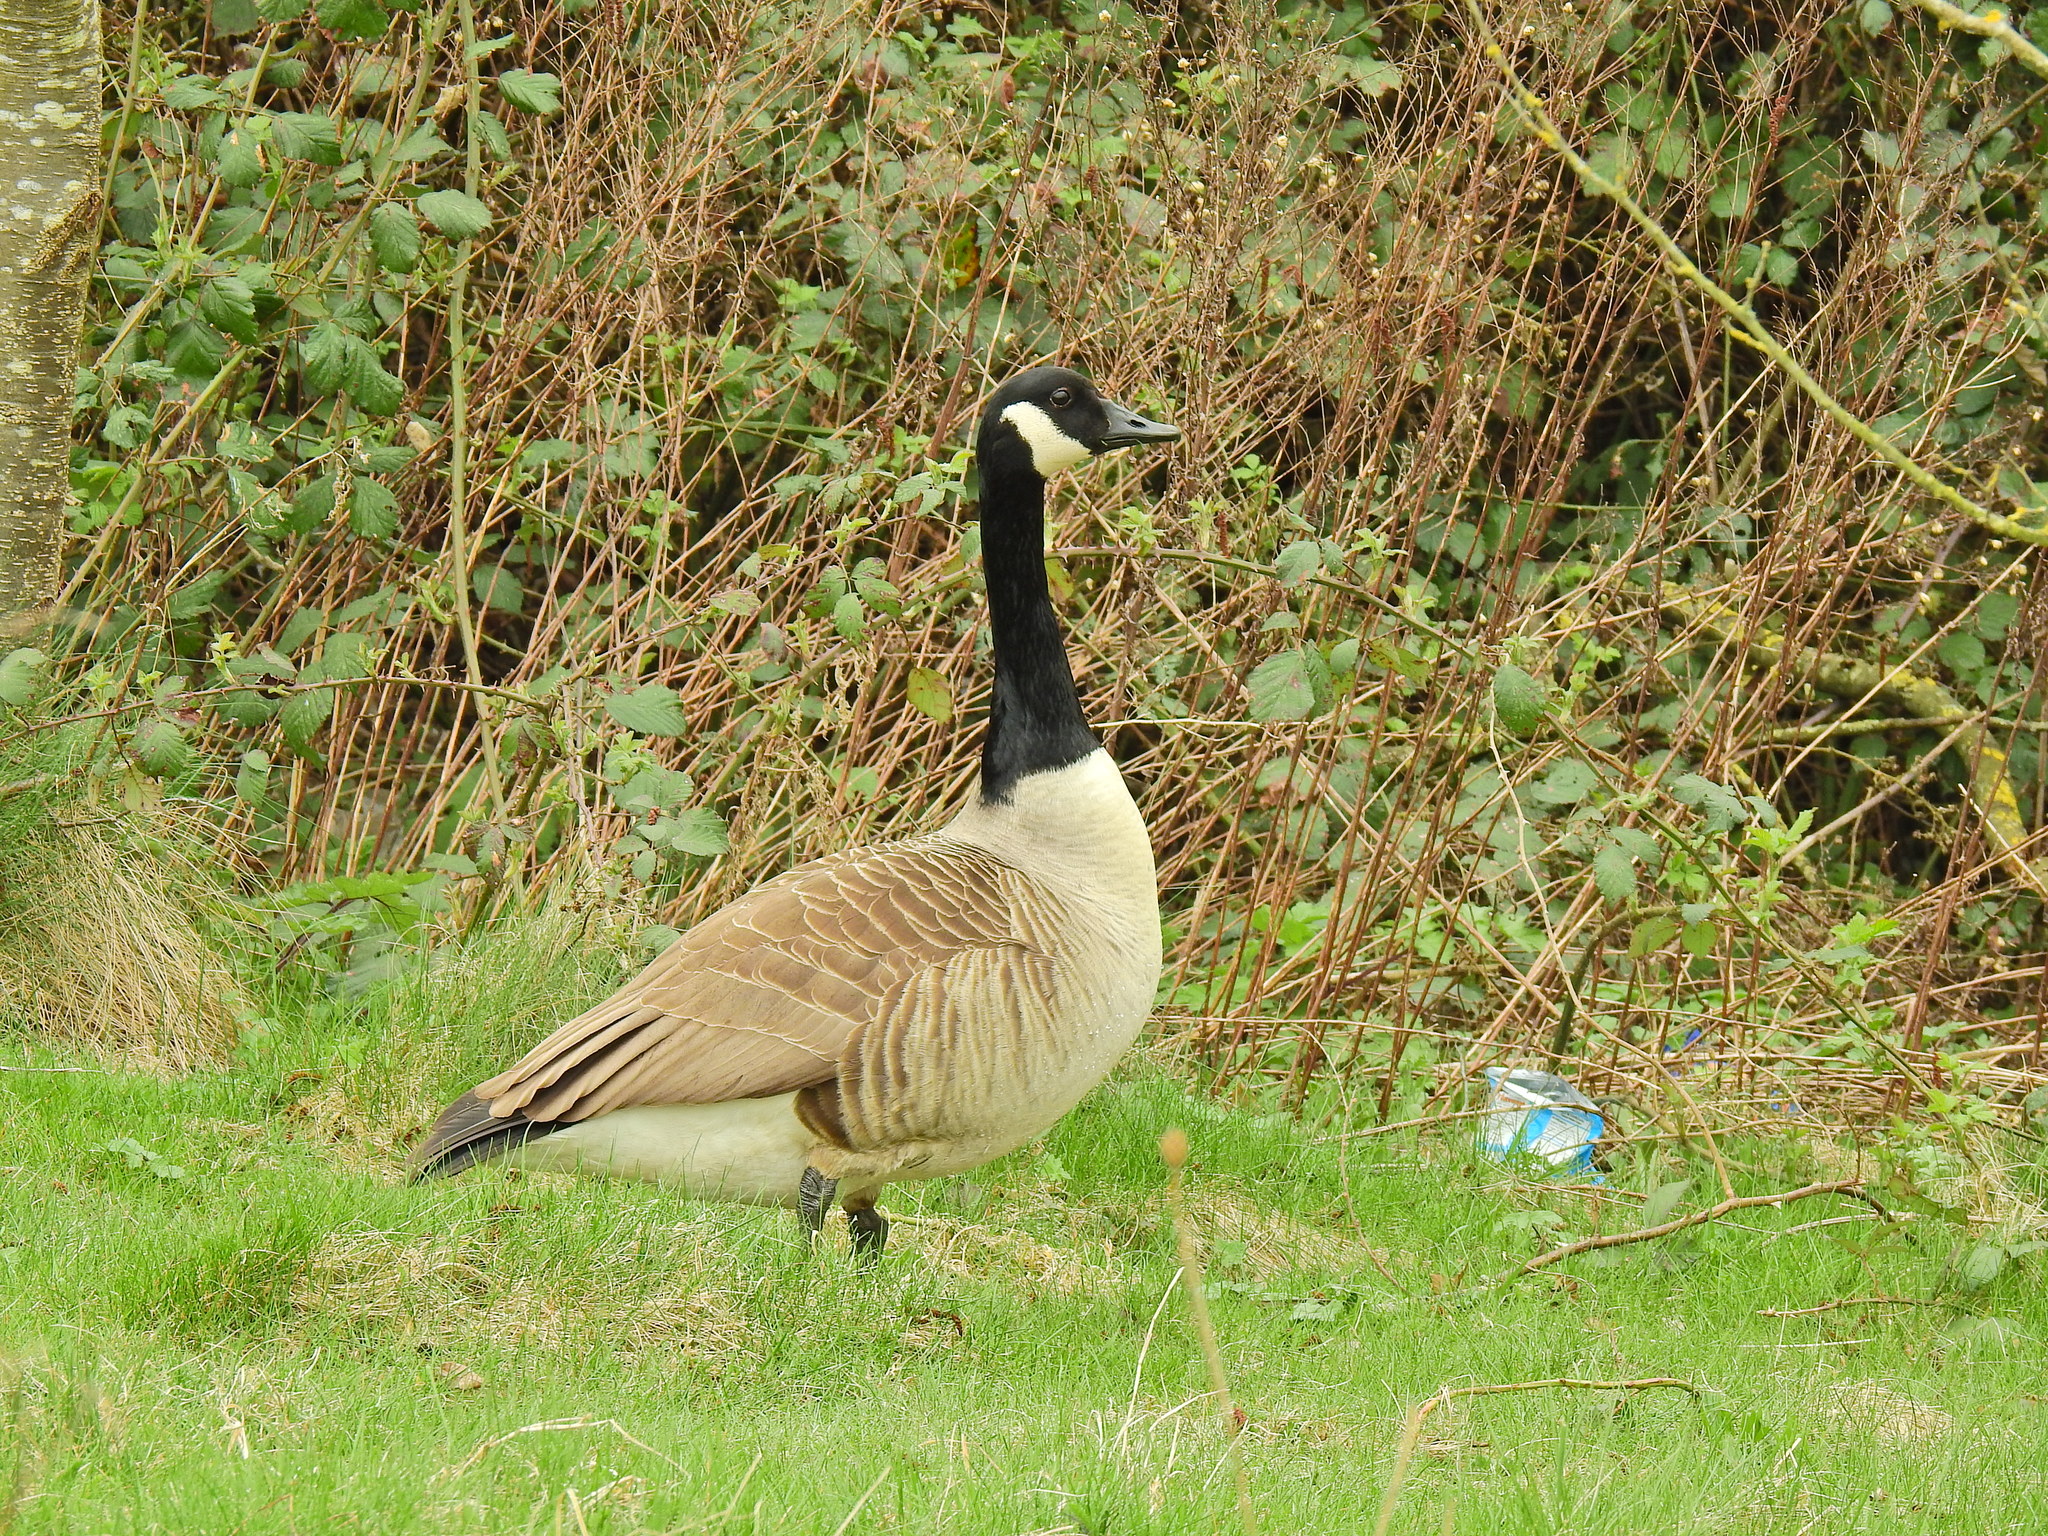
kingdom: Animalia
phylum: Chordata
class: Aves
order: Anseriformes
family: Anatidae
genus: Branta
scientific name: Branta canadensis
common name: Canada goose
